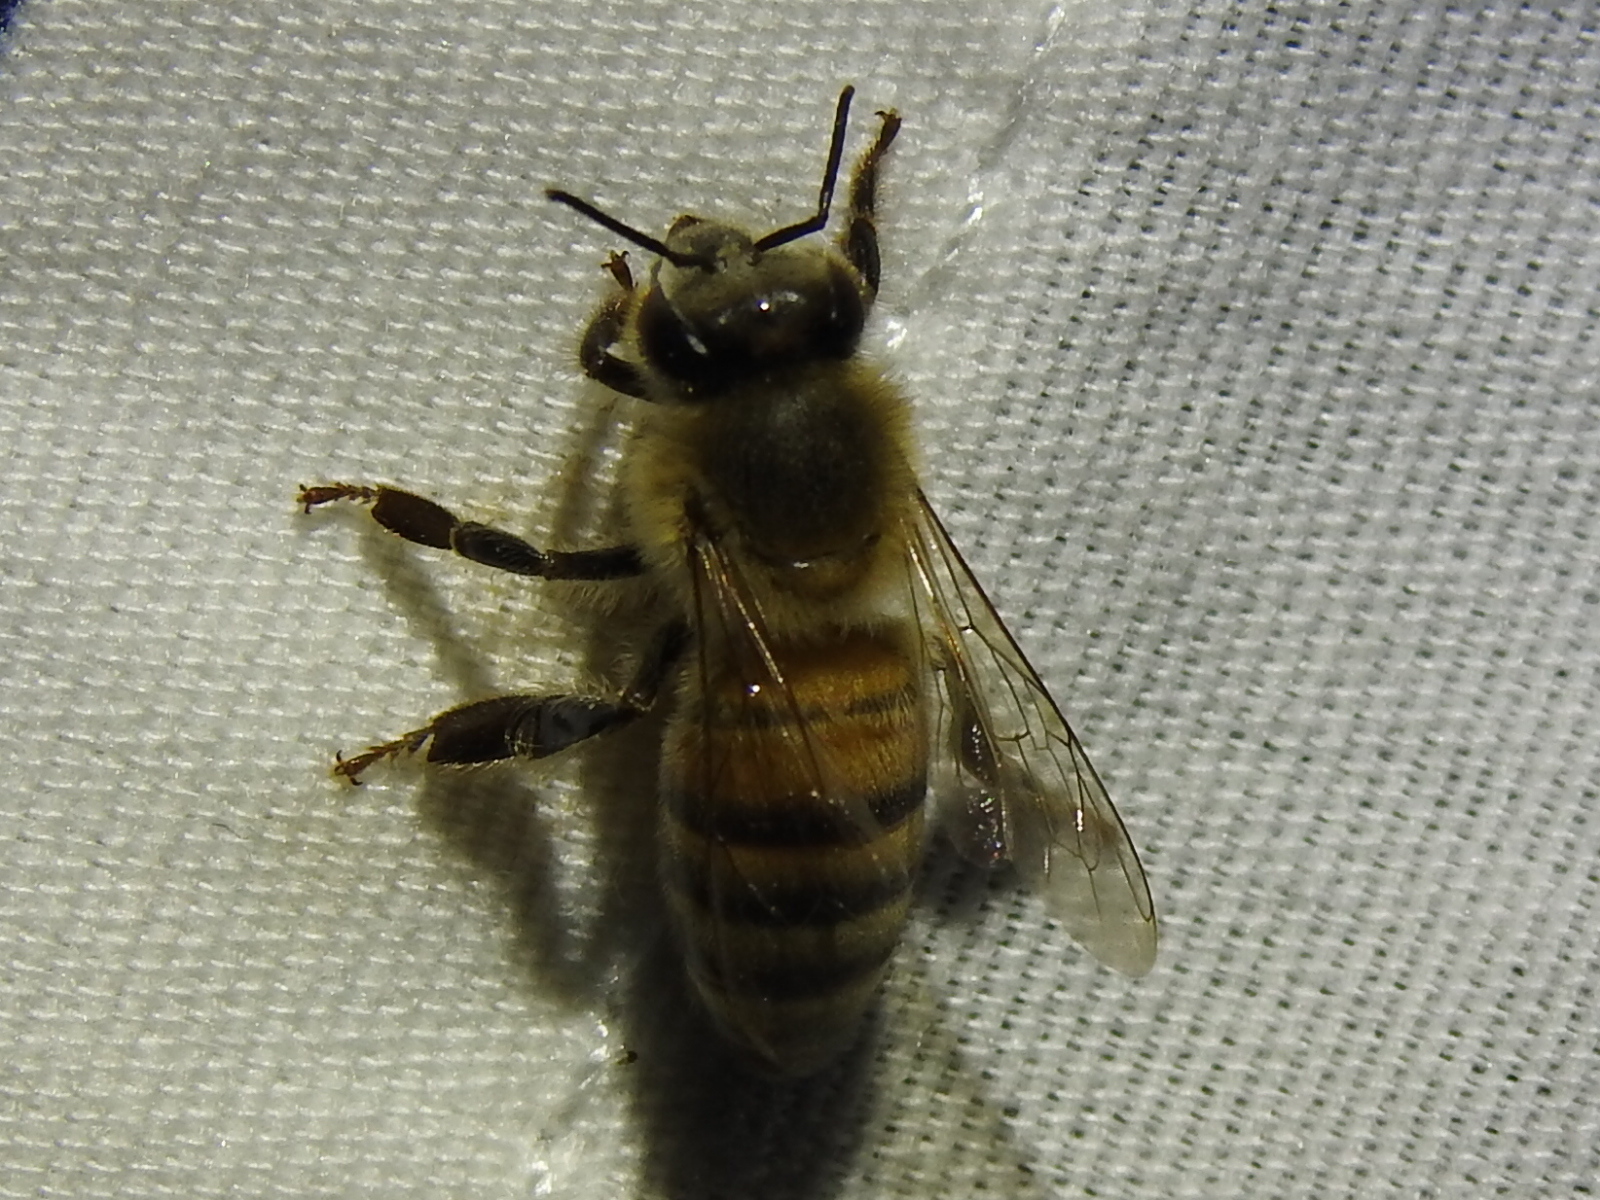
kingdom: Animalia
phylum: Arthropoda
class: Insecta
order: Hymenoptera
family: Apidae
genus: Apis
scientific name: Apis mellifera
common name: Honey bee
